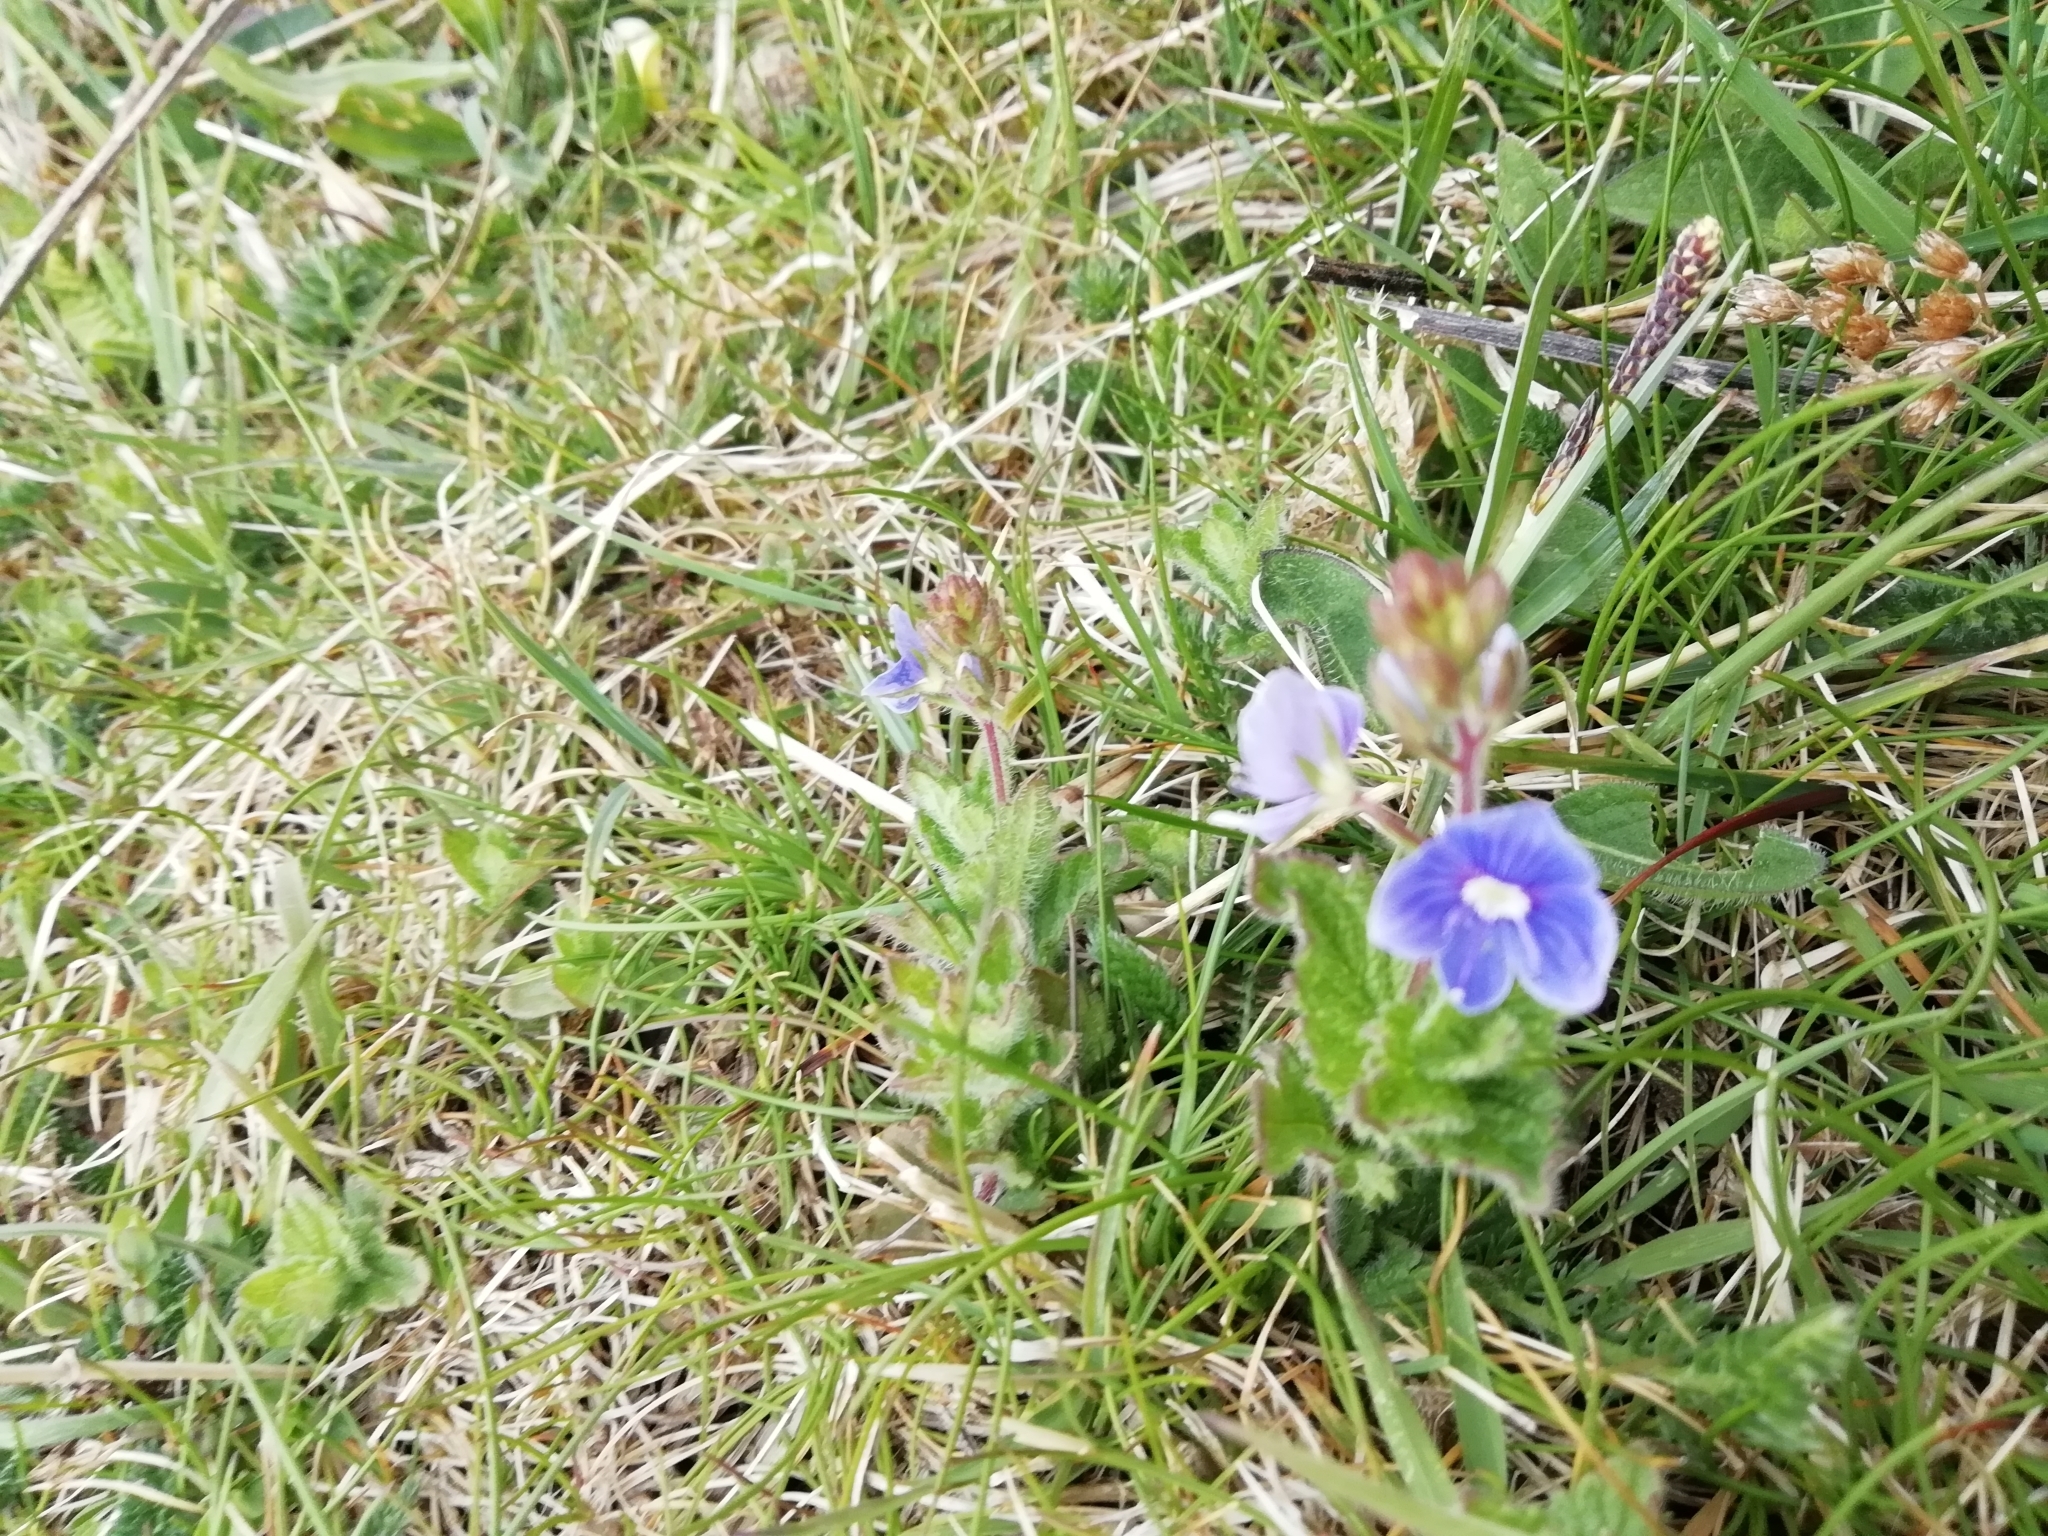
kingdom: Plantae
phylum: Tracheophyta
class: Magnoliopsida
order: Lamiales
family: Plantaginaceae
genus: Veronica
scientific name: Veronica chamaedrys
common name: Germander speedwell
